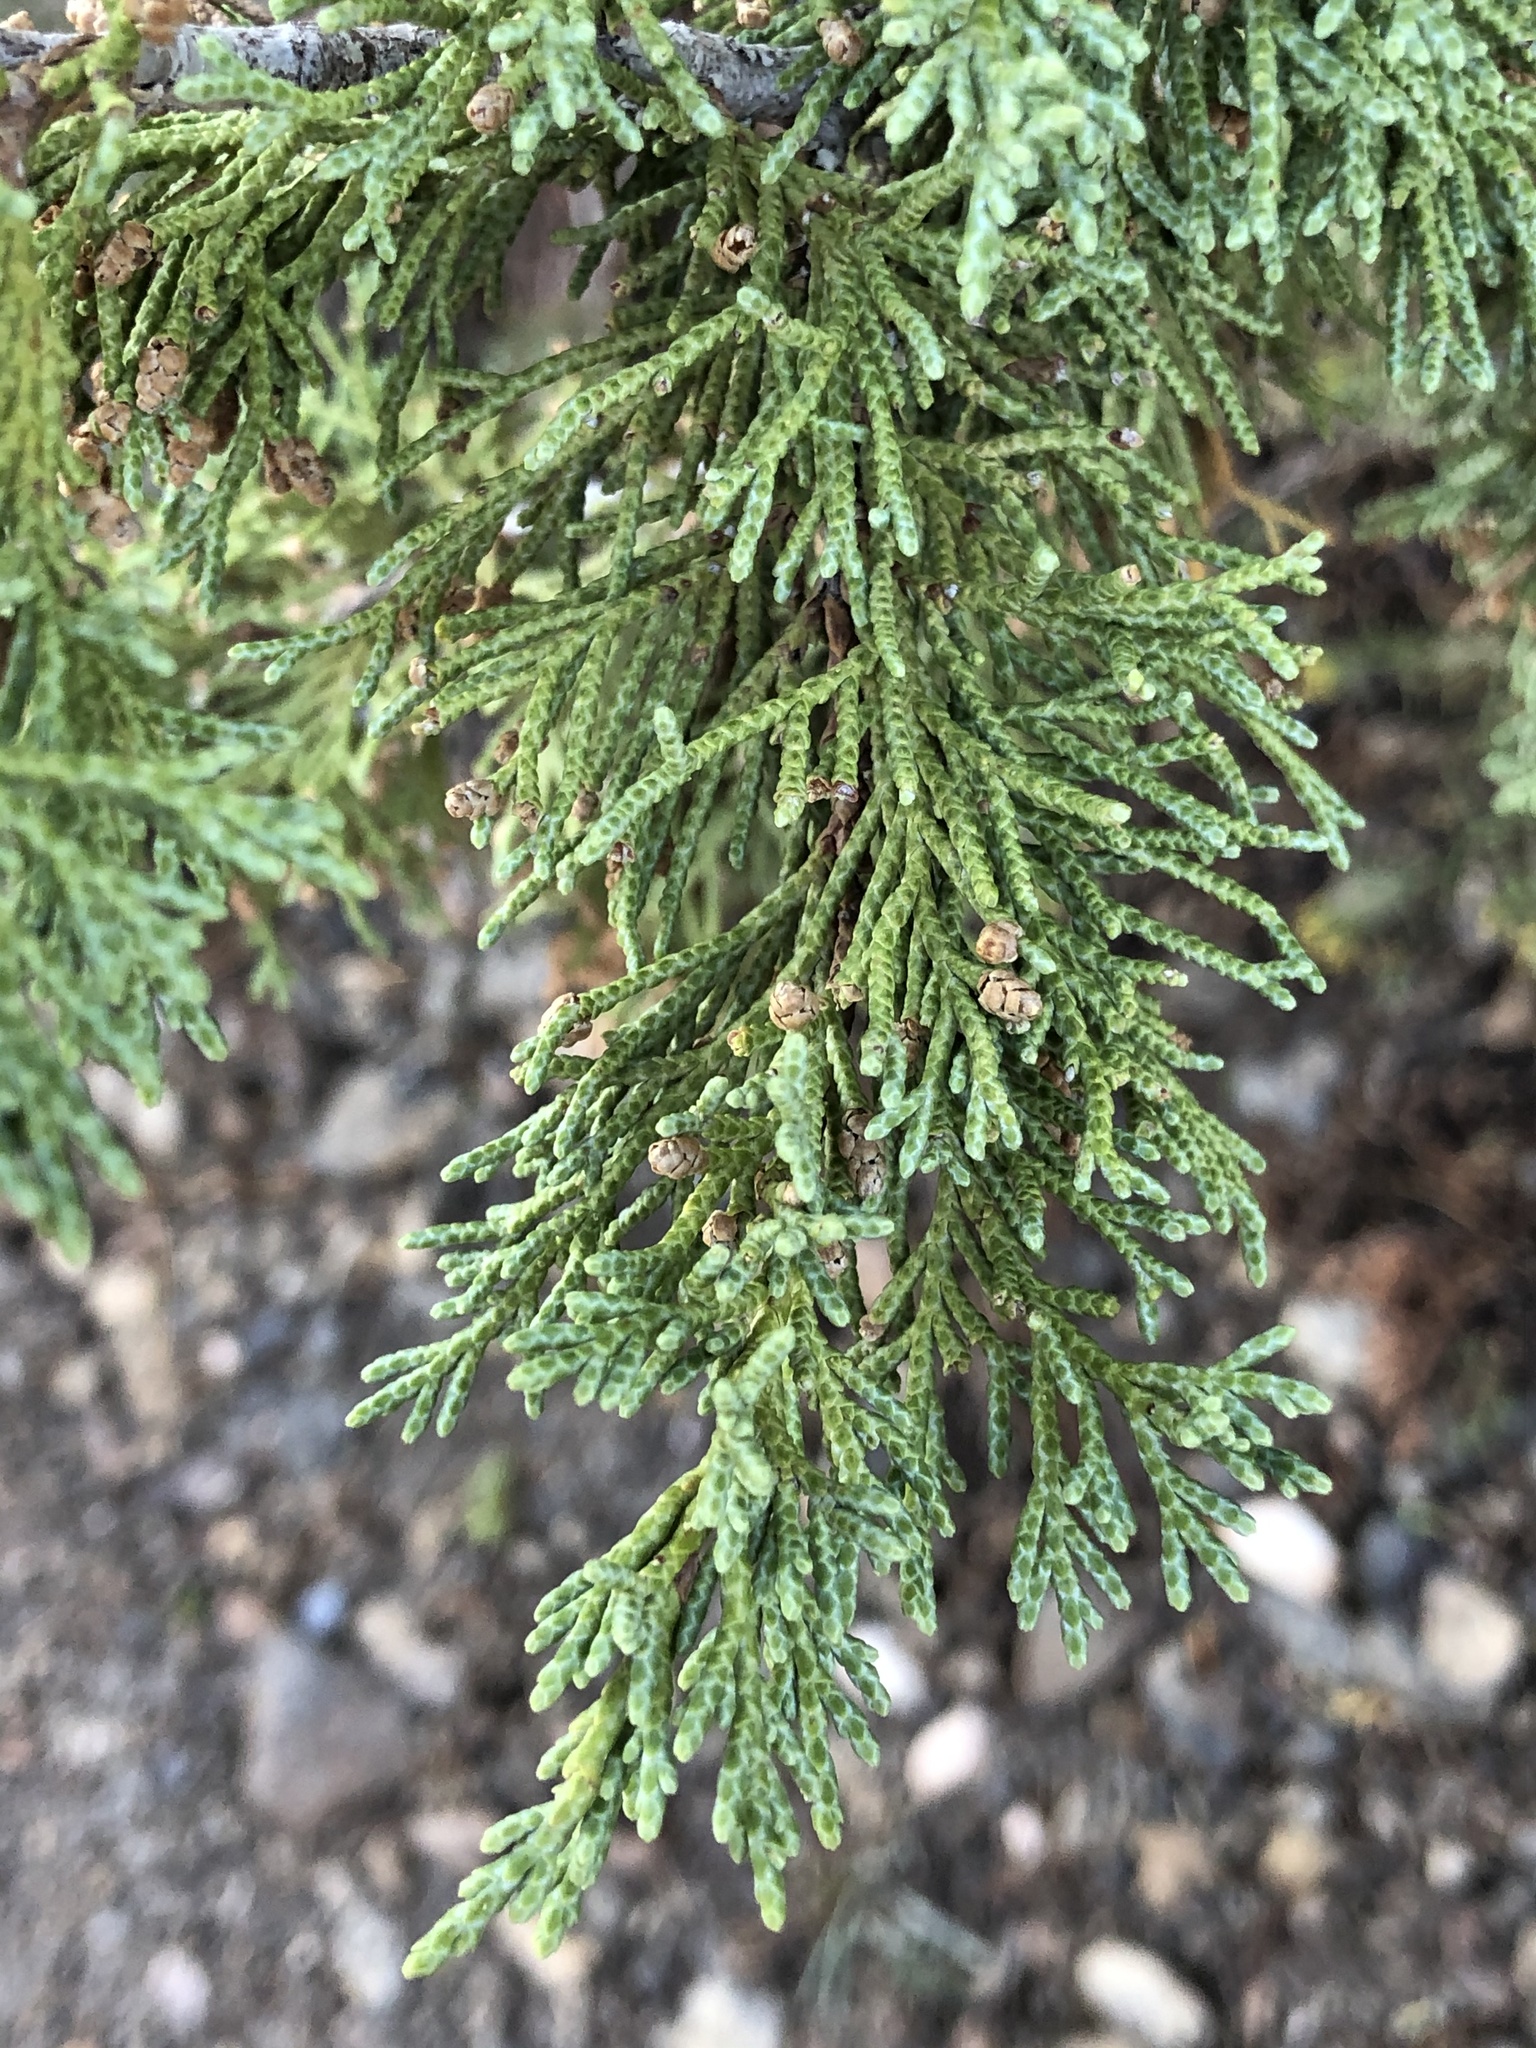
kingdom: Plantae
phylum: Tracheophyta
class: Pinopsida
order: Pinales
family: Cupressaceae
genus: Juniperus
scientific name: Juniperus osteosperma
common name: Utah juniper
